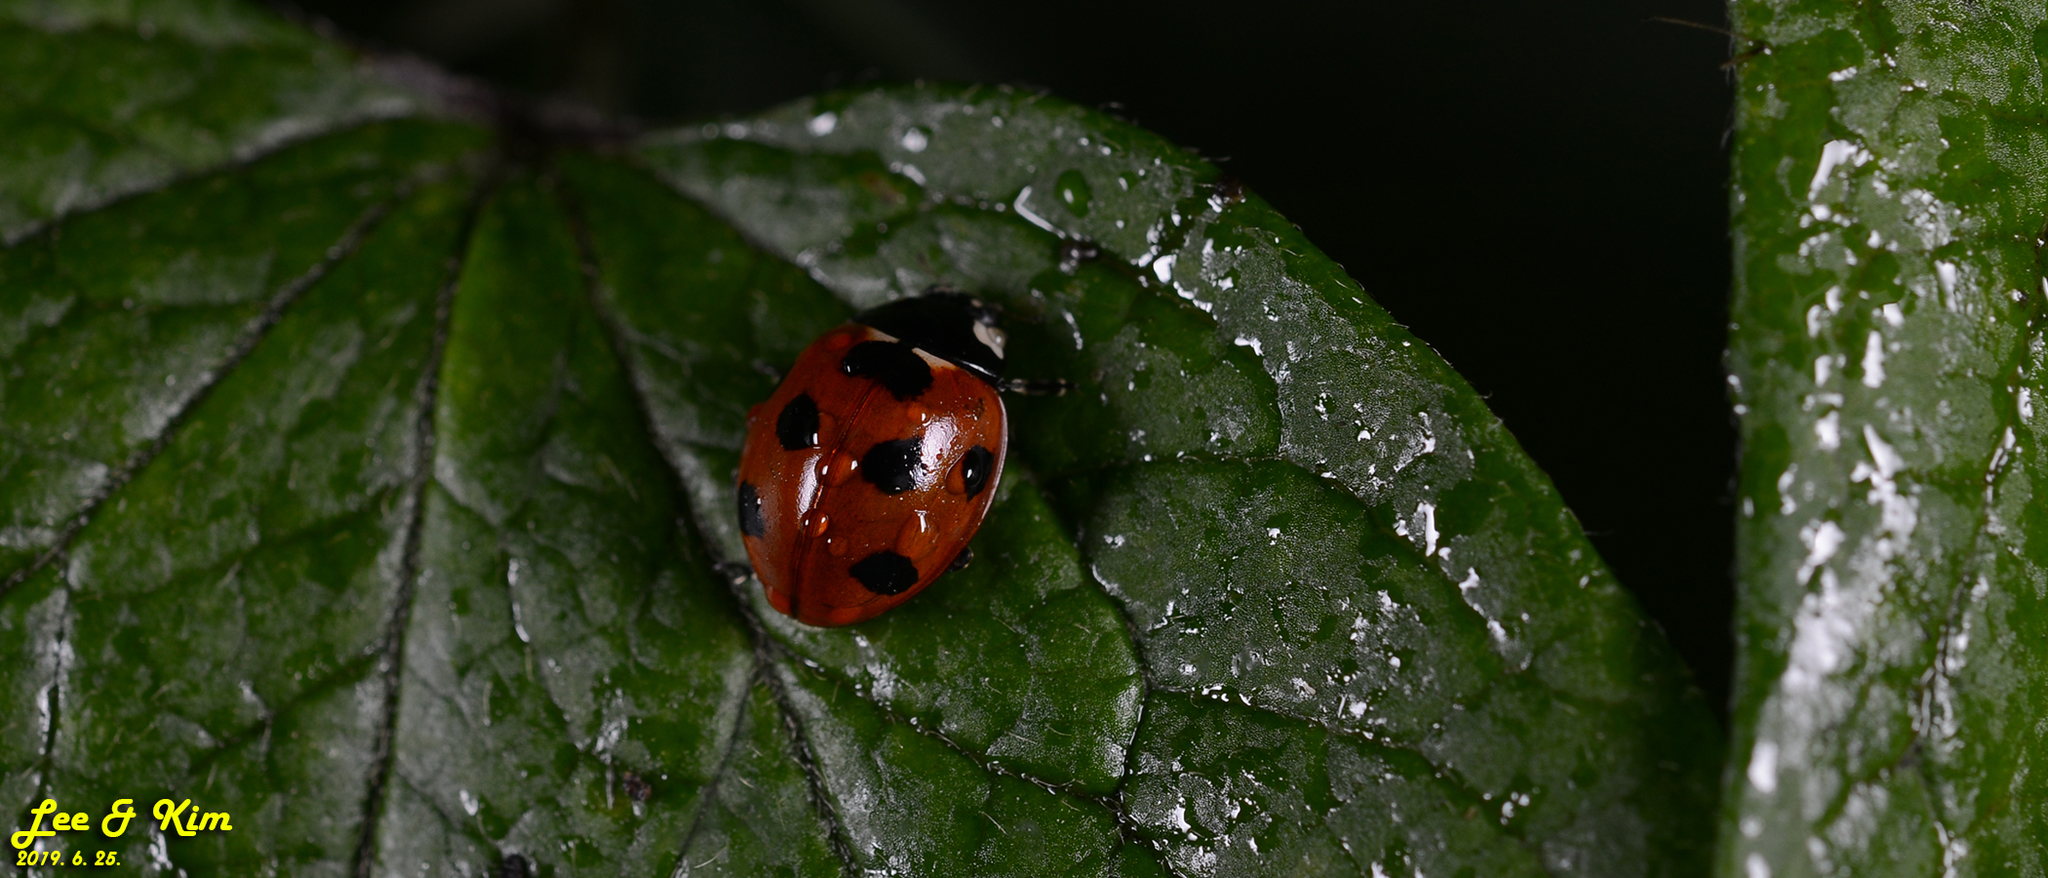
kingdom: Animalia
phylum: Arthropoda
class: Insecta
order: Coleoptera
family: Coccinellidae
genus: Coccinella
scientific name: Coccinella septempunctata
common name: Sevenspotted lady beetle
